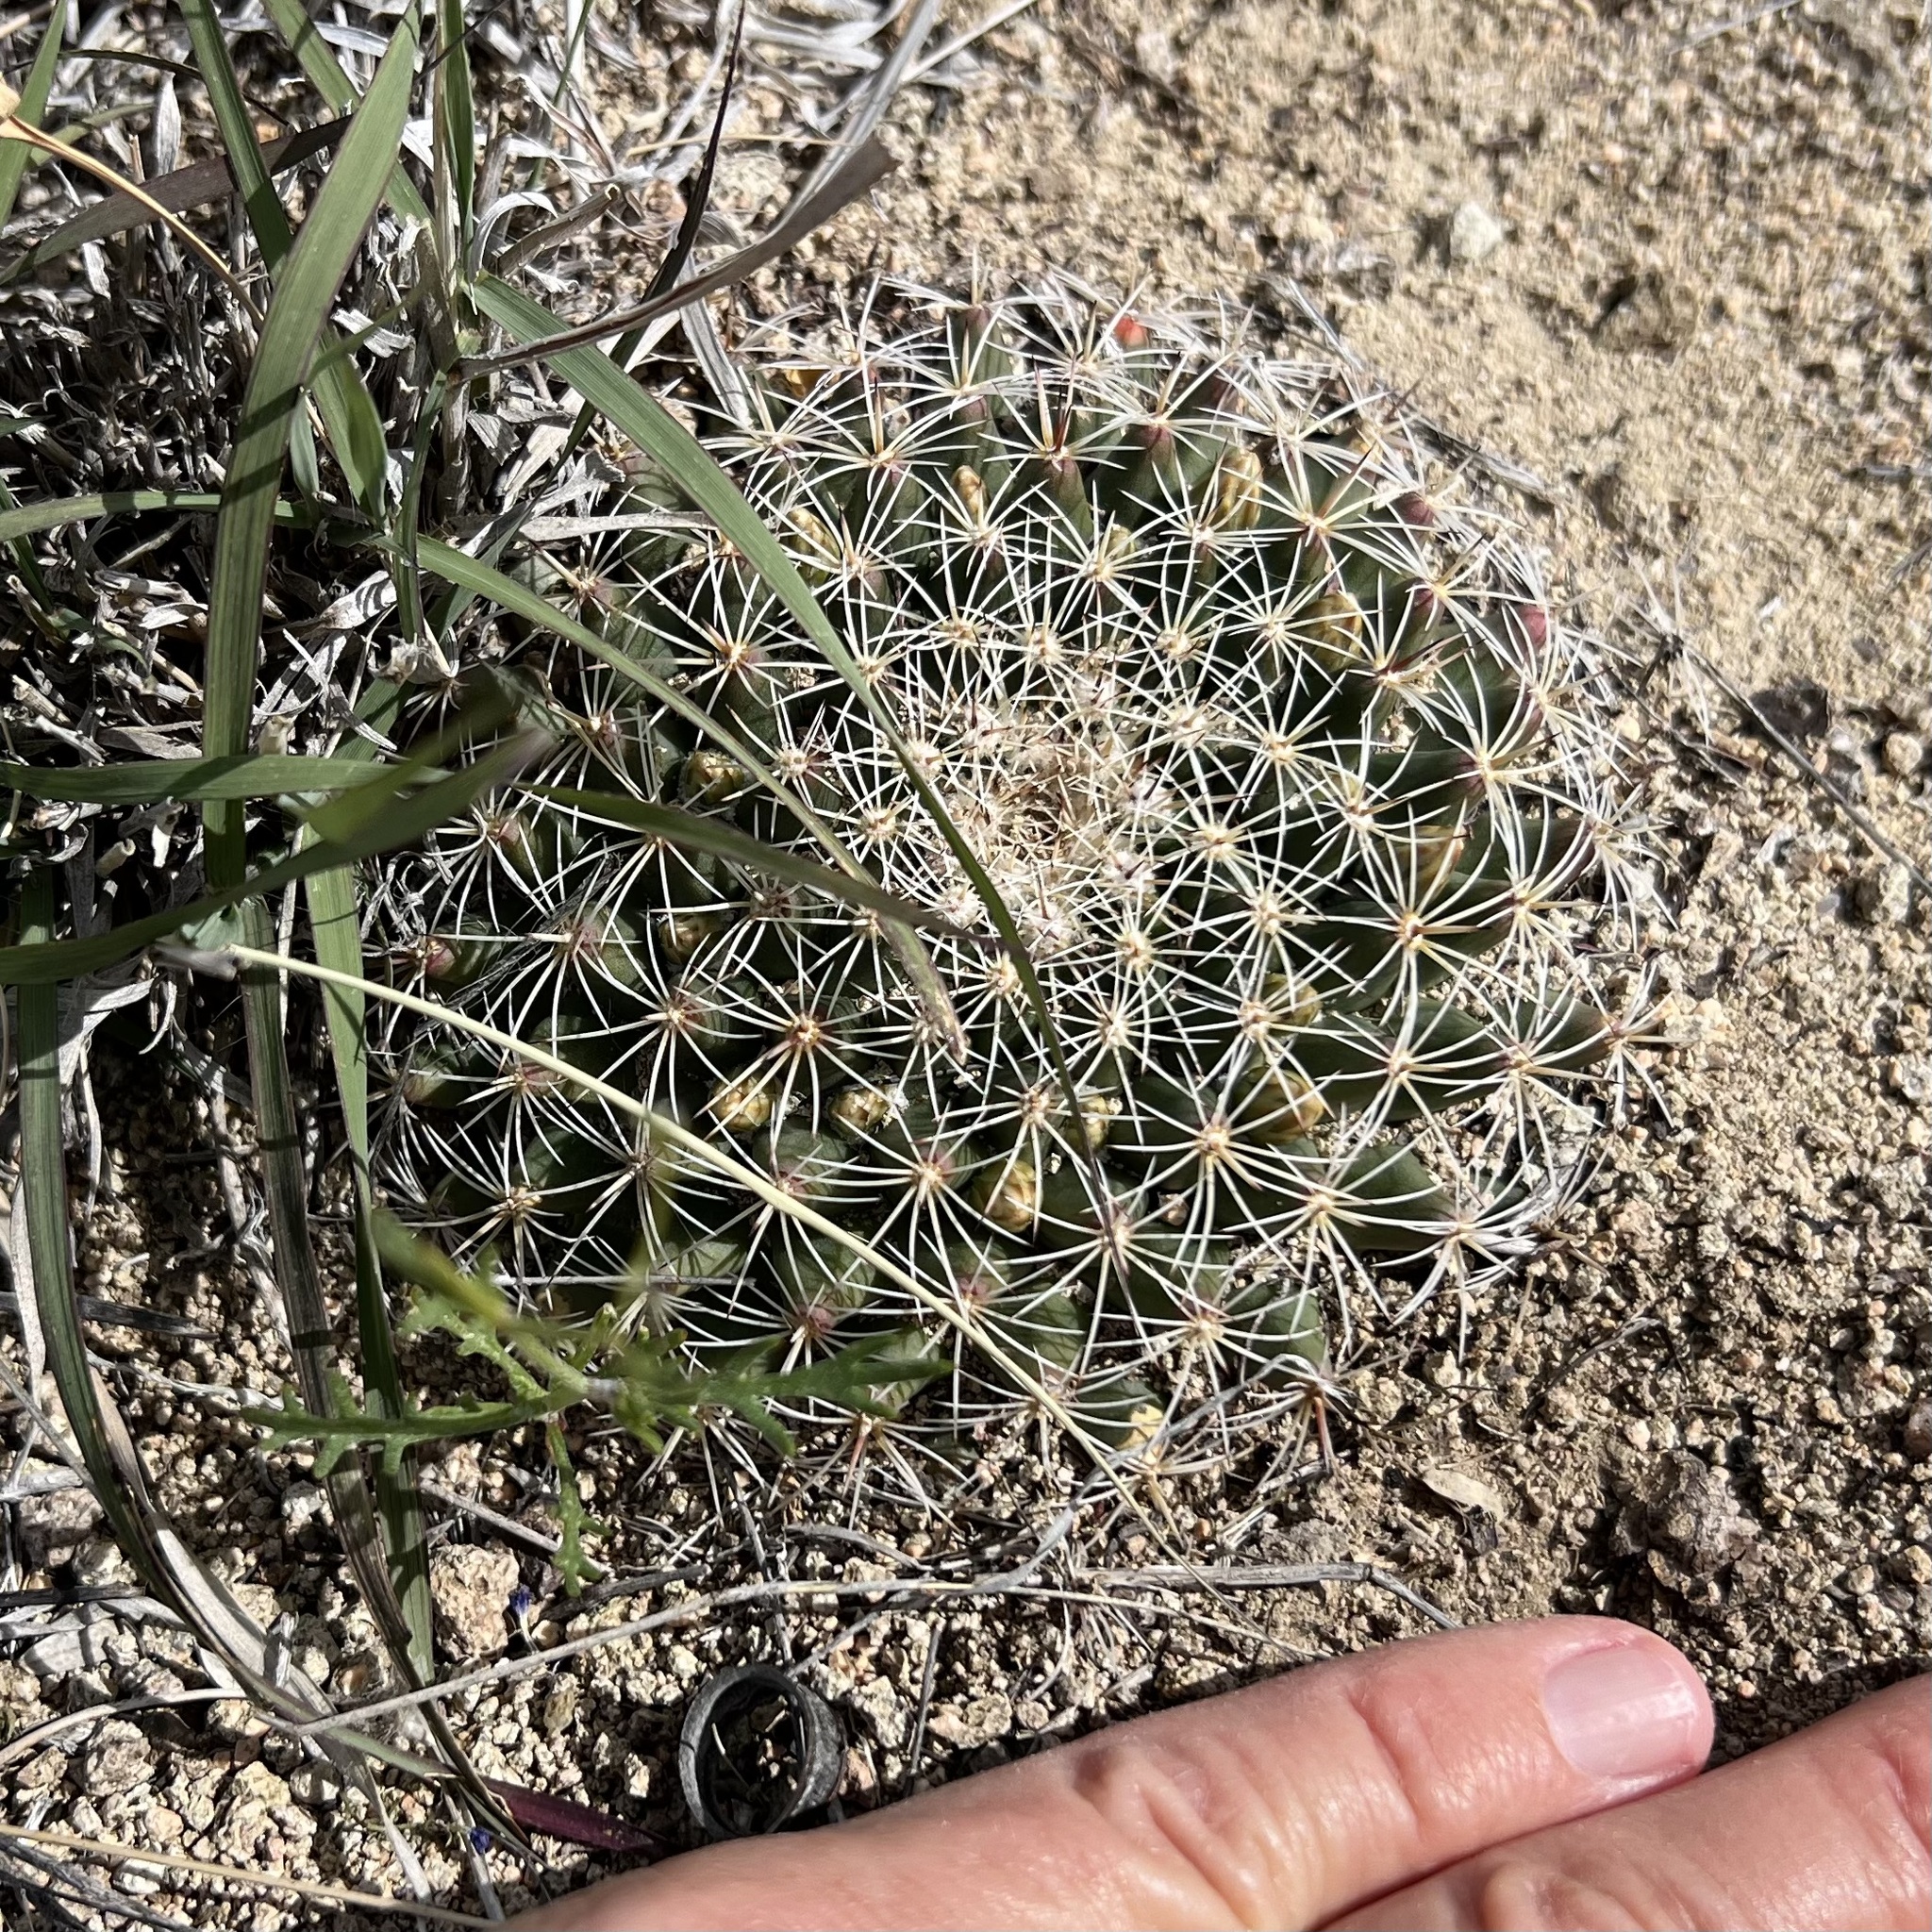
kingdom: Plantae
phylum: Tracheophyta
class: Magnoliopsida
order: Caryophyllales
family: Cactaceae
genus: Mammillaria
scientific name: Mammillaria heyderi
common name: Little nipple cactus
